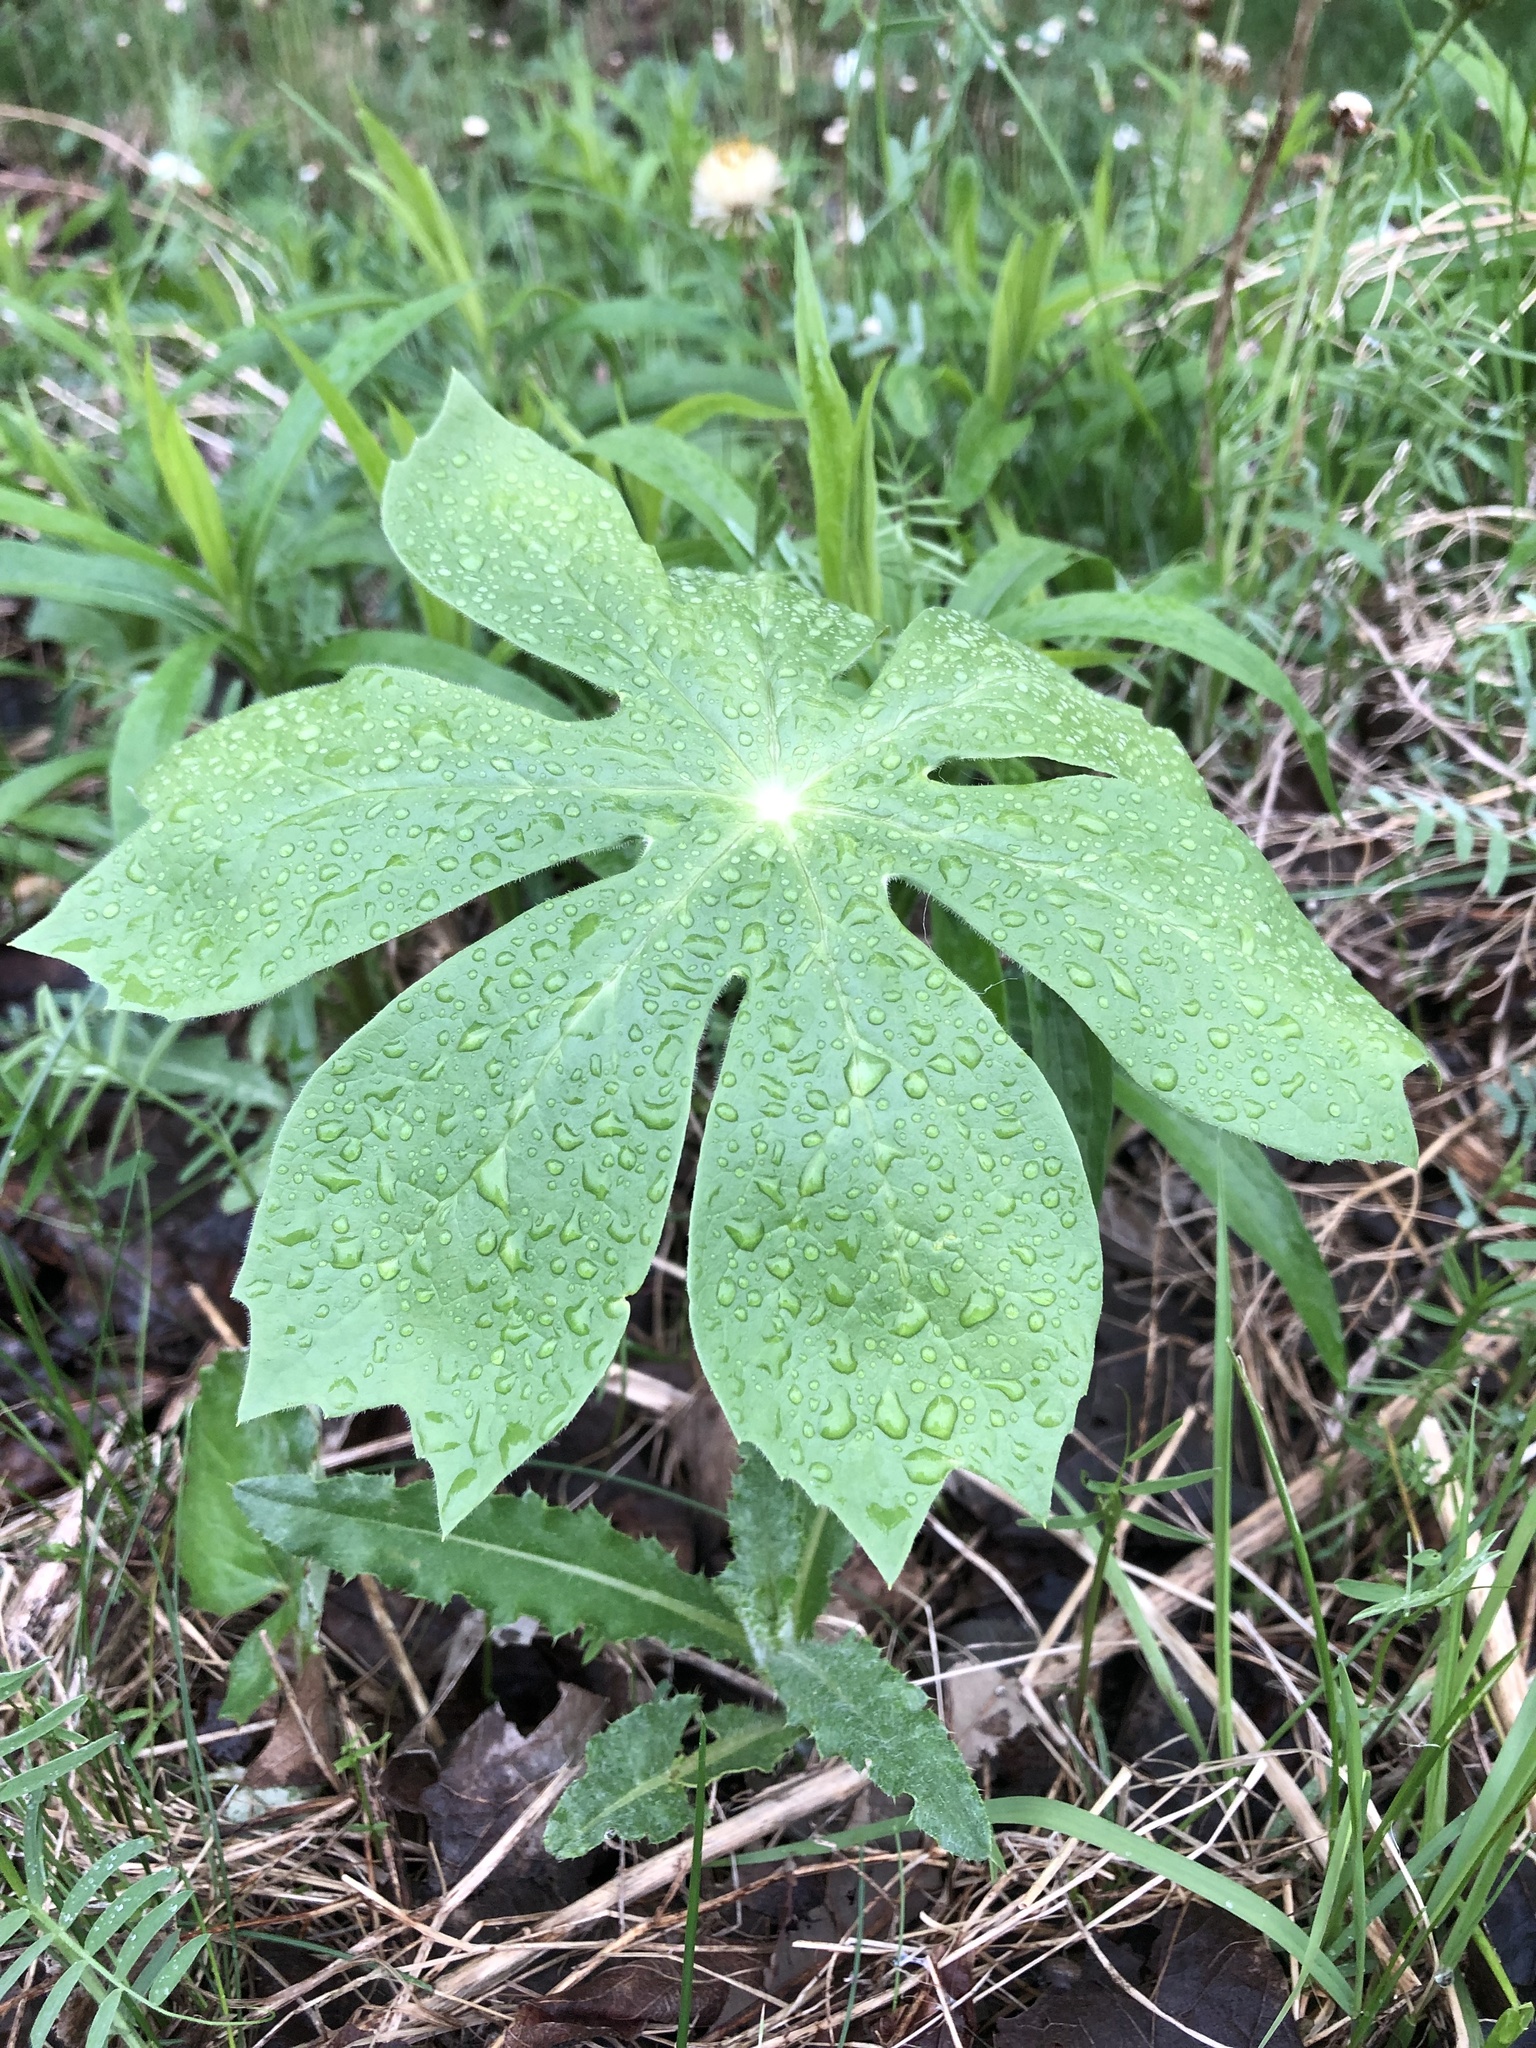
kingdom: Plantae
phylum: Tracheophyta
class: Magnoliopsida
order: Ranunculales
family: Berberidaceae
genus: Podophyllum
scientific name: Podophyllum peltatum
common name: Wild mandrake
